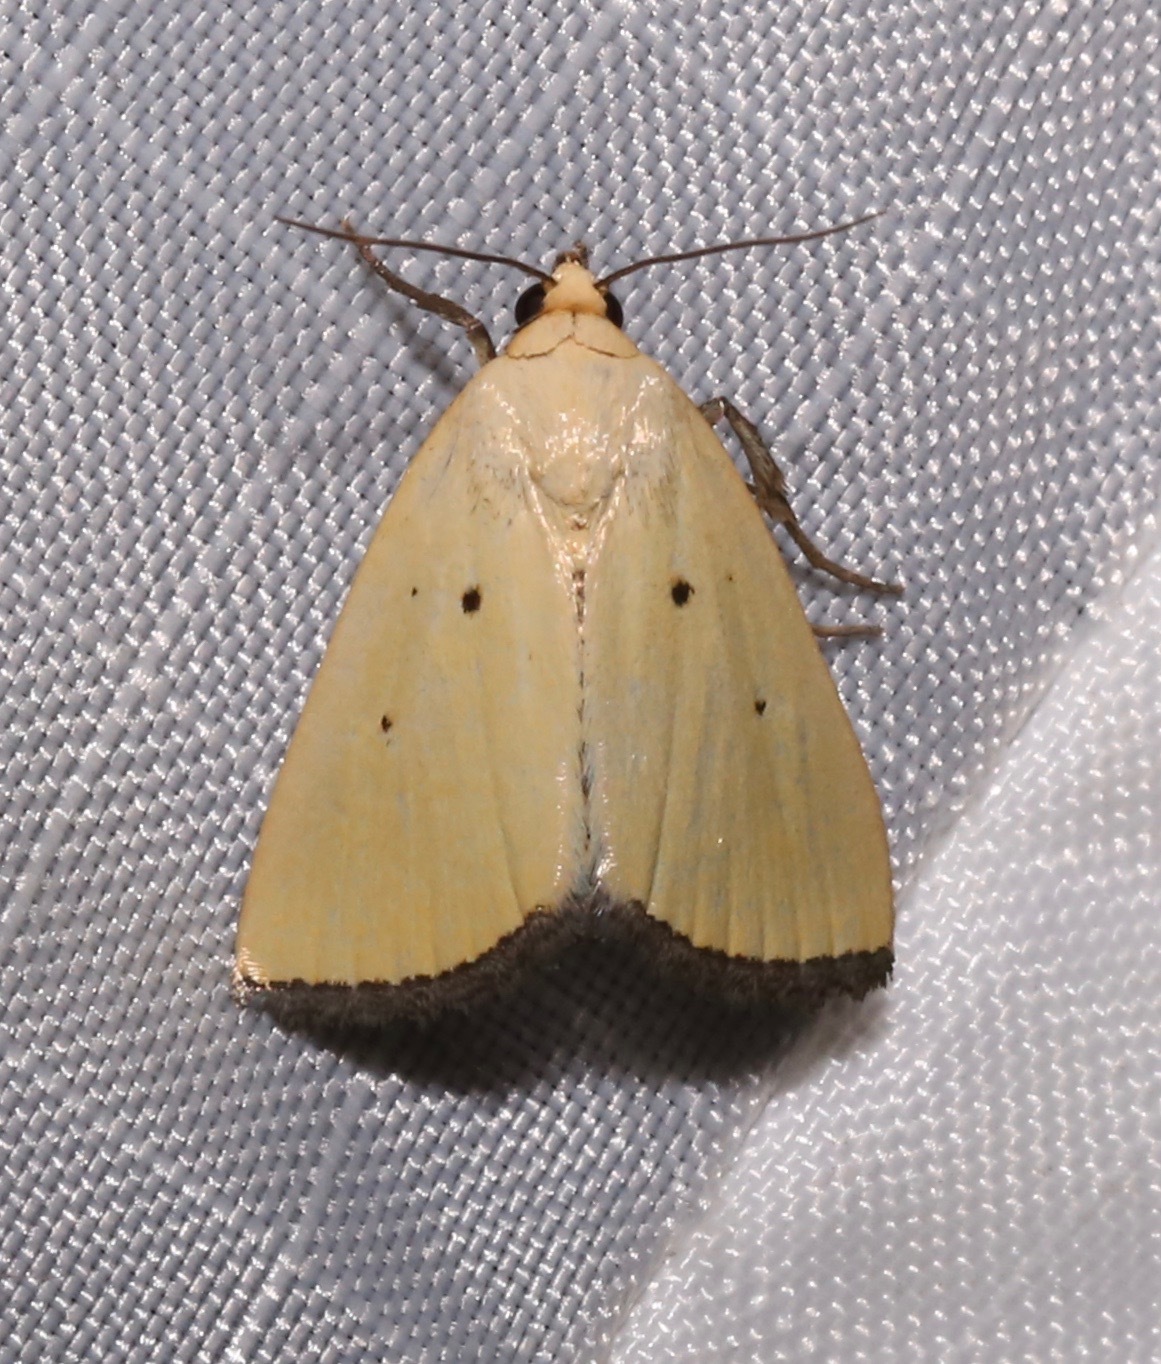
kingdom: Animalia
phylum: Arthropoda
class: Insecta
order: Lepidoptera
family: Noctuidae
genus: Marimatha
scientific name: Marimatha nigrofimbria
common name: Black-bordered lemon moth
